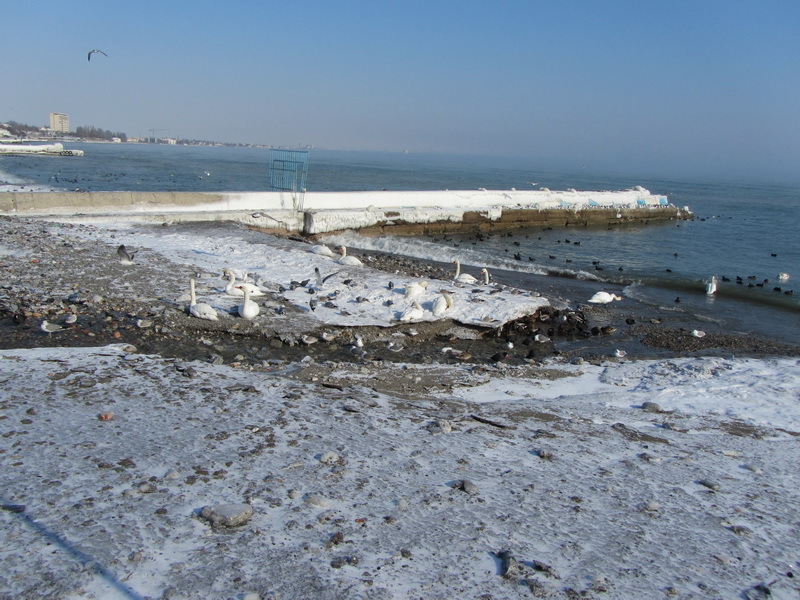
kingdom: Animalia
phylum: Chordata
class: Aves
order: Anseriformes
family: Anatidae
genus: Cygnus
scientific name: Cygnus olor
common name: Mute swan
